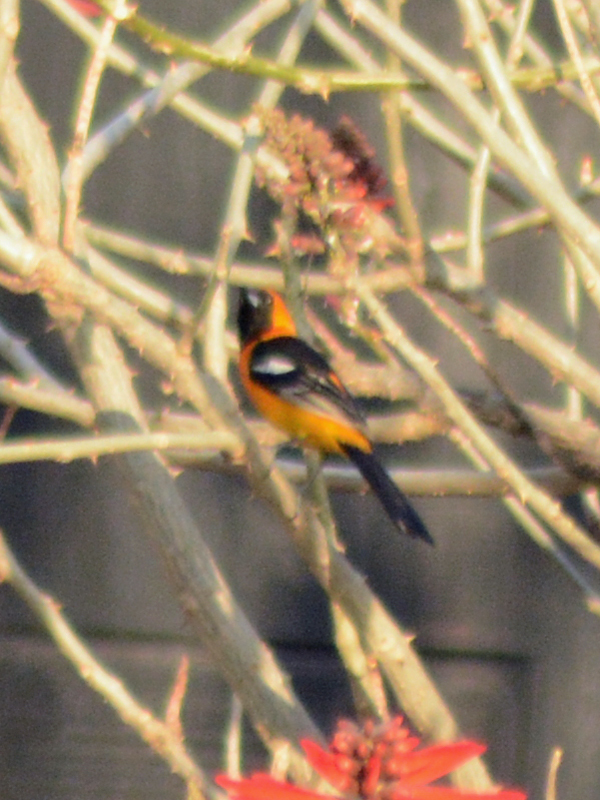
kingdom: Animalia
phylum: Chordata
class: Aves
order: Passeriformes
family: Icteridae
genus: Icterus
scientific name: Icterus cucullatus
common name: Hooded oriole
